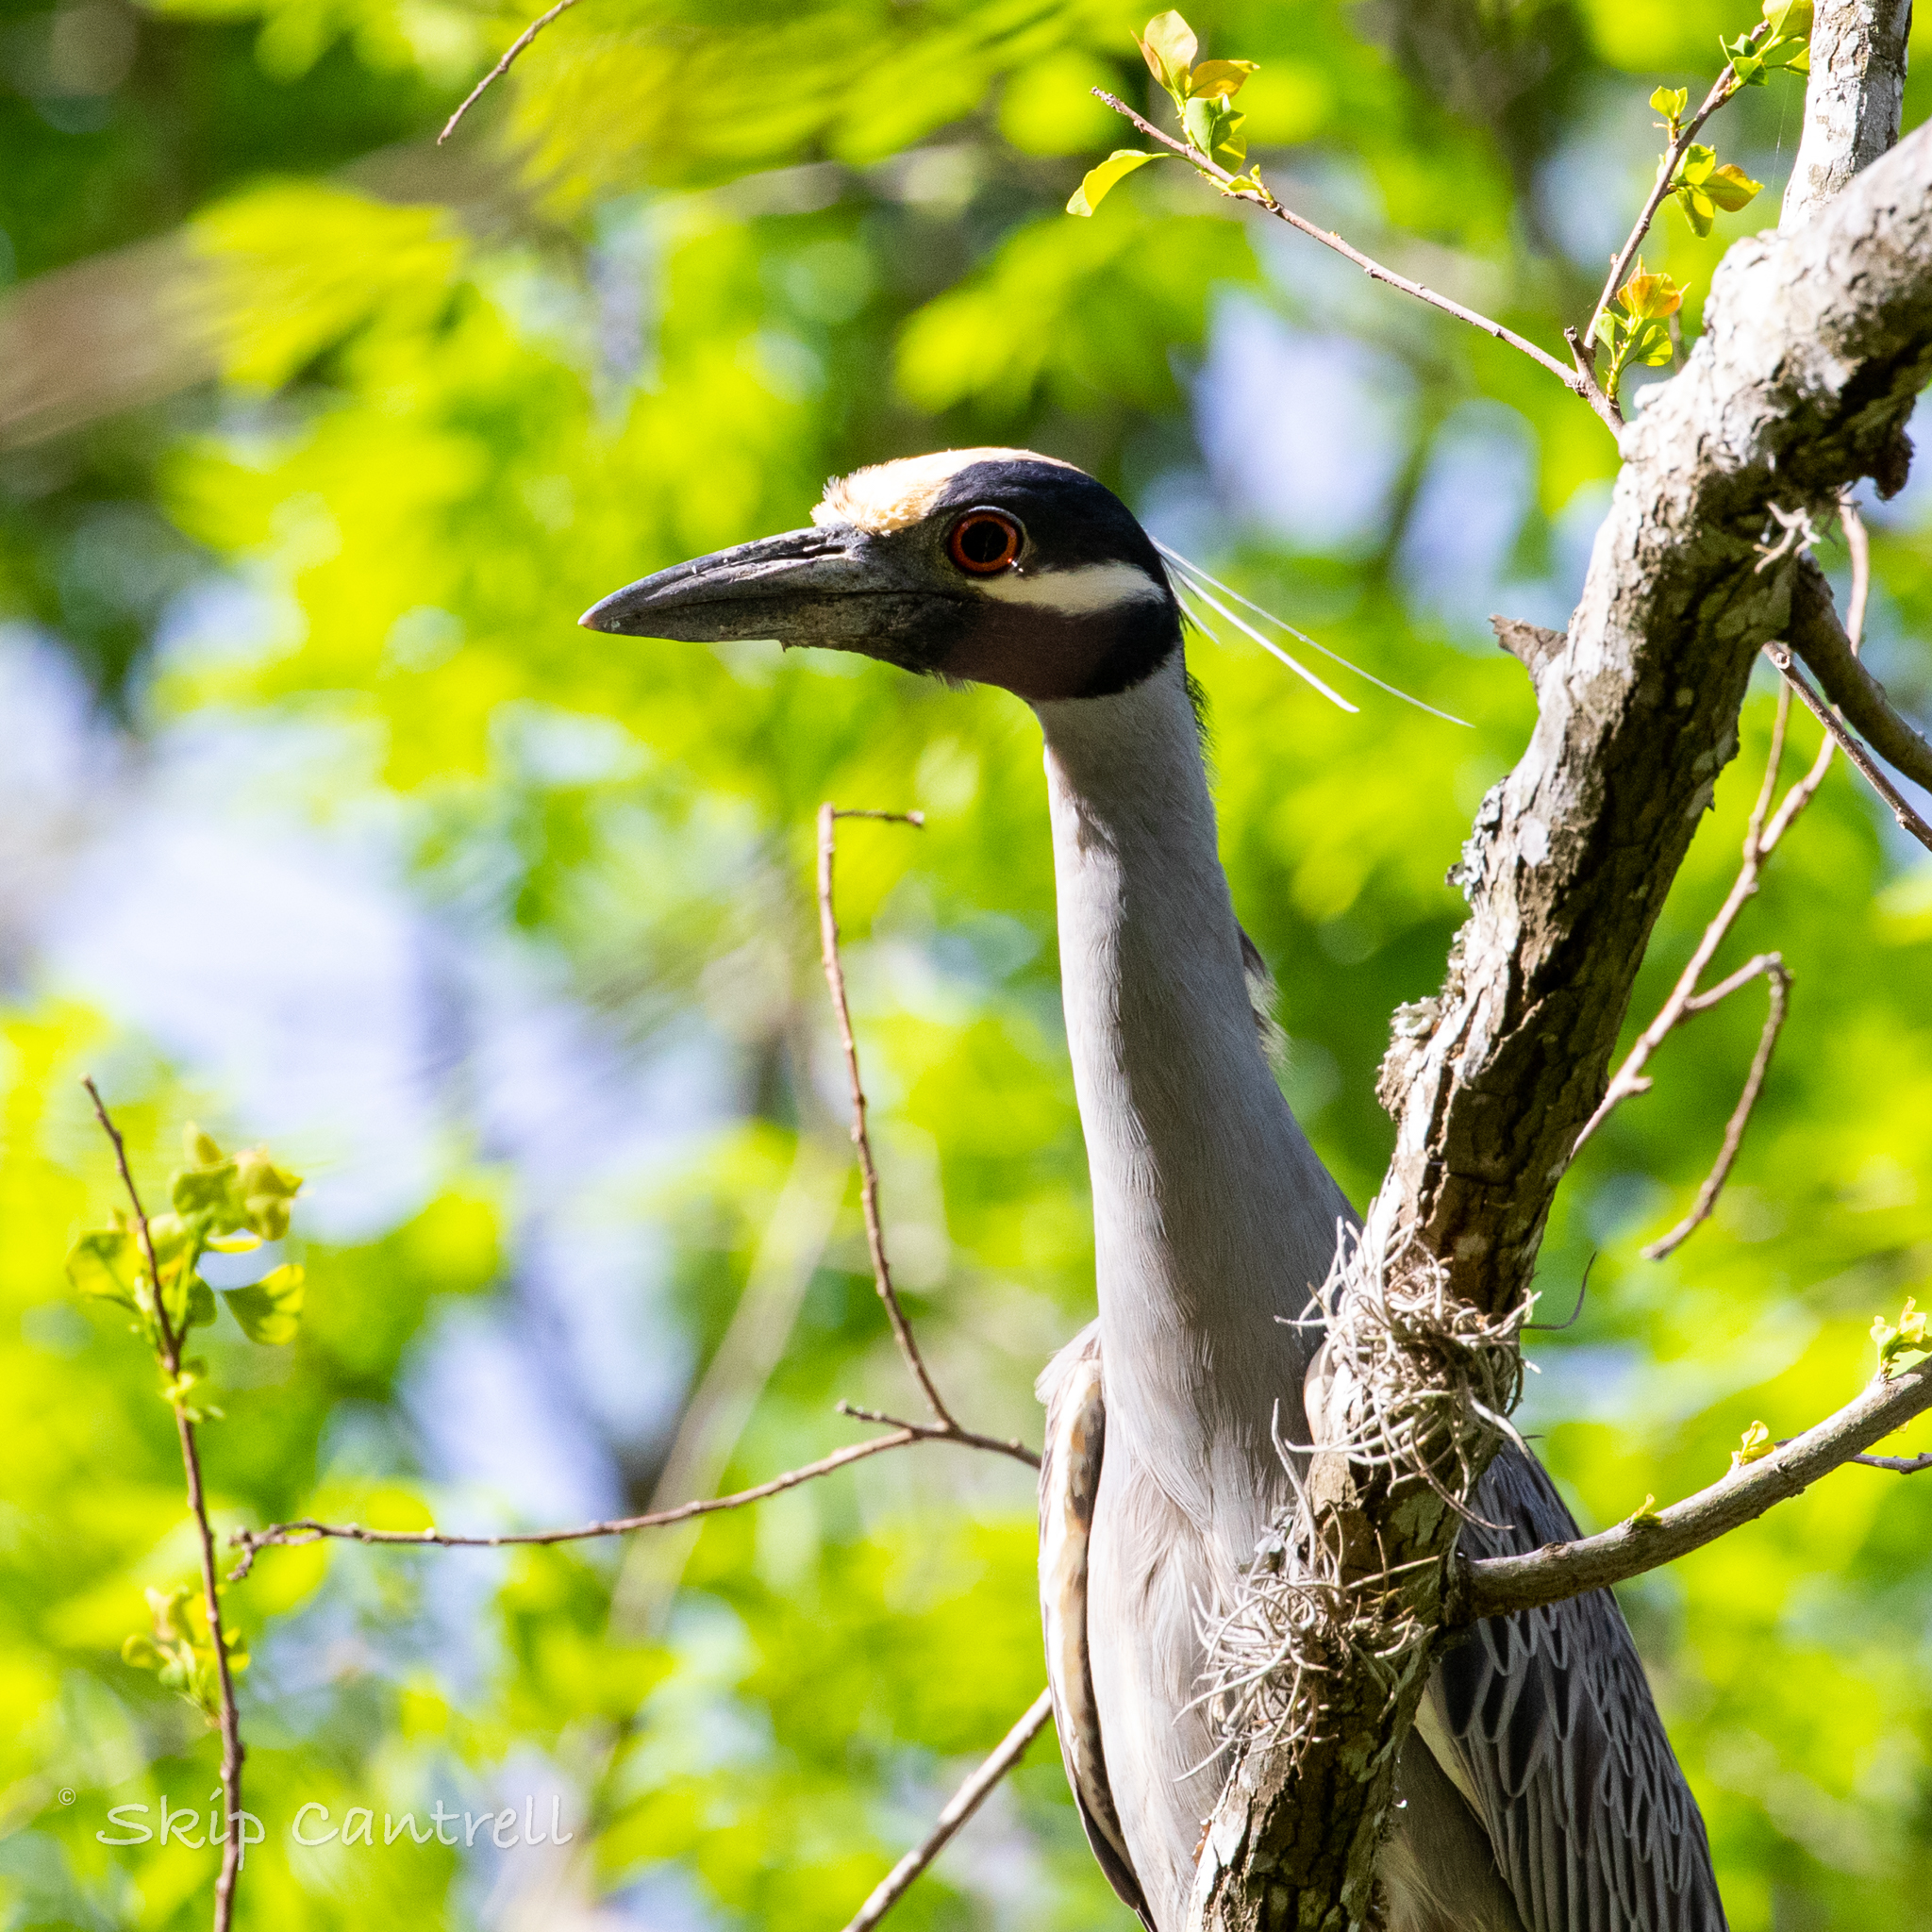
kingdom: Animalia
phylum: Chordata
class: Aves
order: Pelecaniformes
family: Ardeidae
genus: Nyctanassa
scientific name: Nyctanassa violacea
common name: Yellow-crowned night heron
